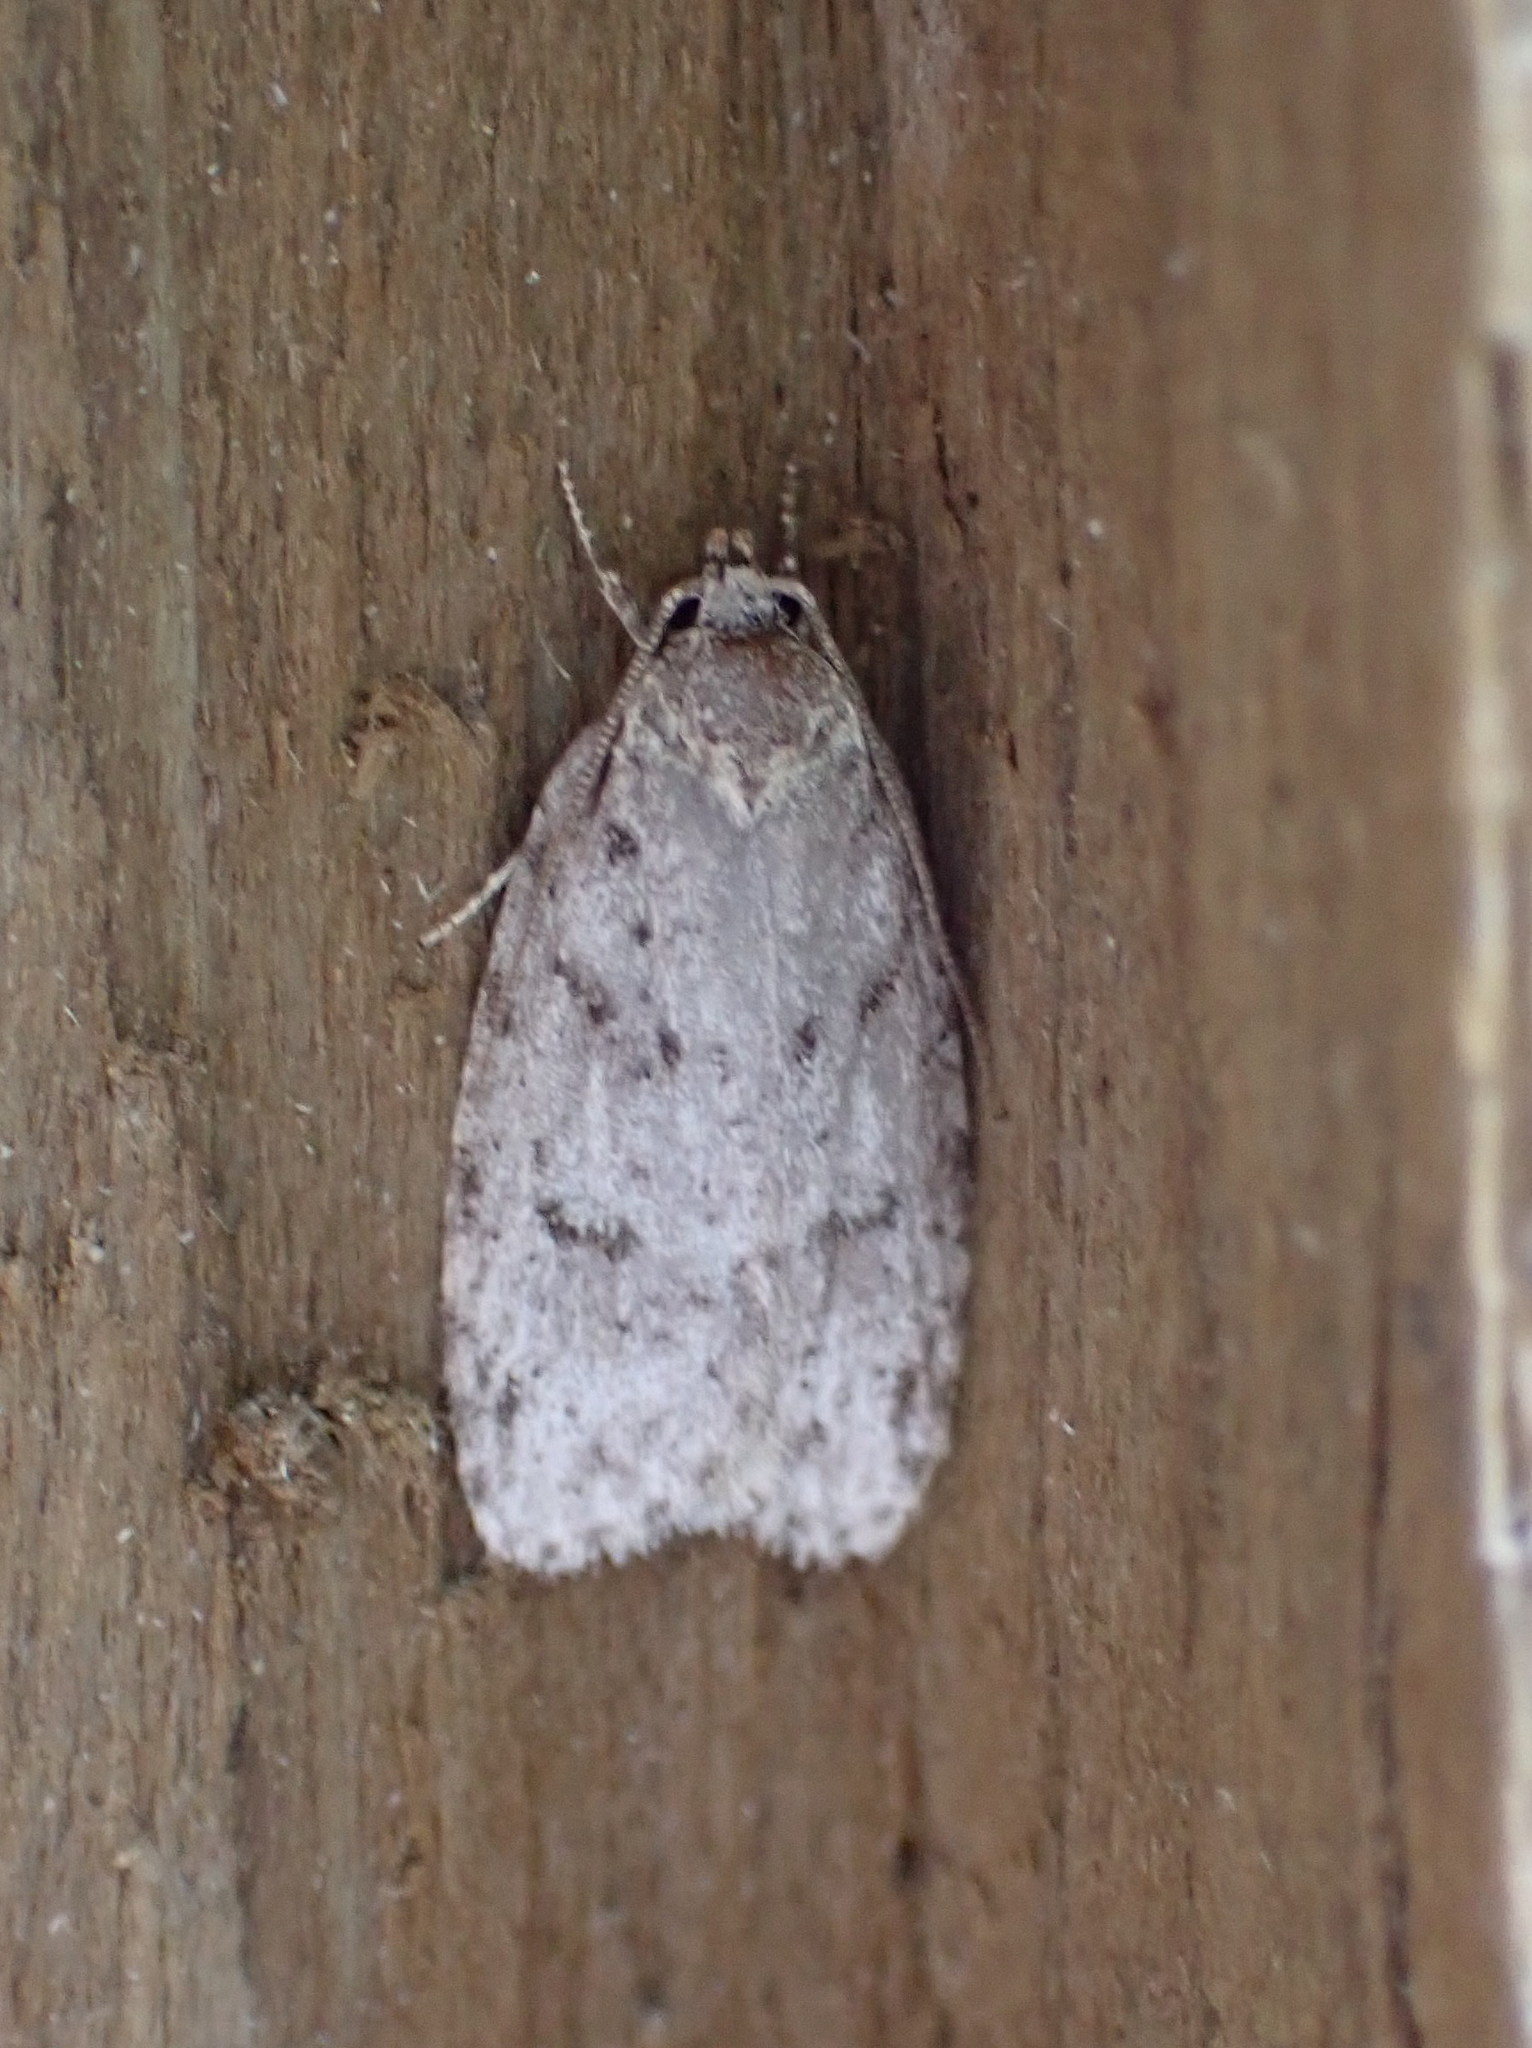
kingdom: Animalia
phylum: Arthropoda
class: Insecta
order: Lepidoptera
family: Depressariidae
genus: Bibarrambla
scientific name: Bibarrambla allenella
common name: Bog bibarrambla moth
